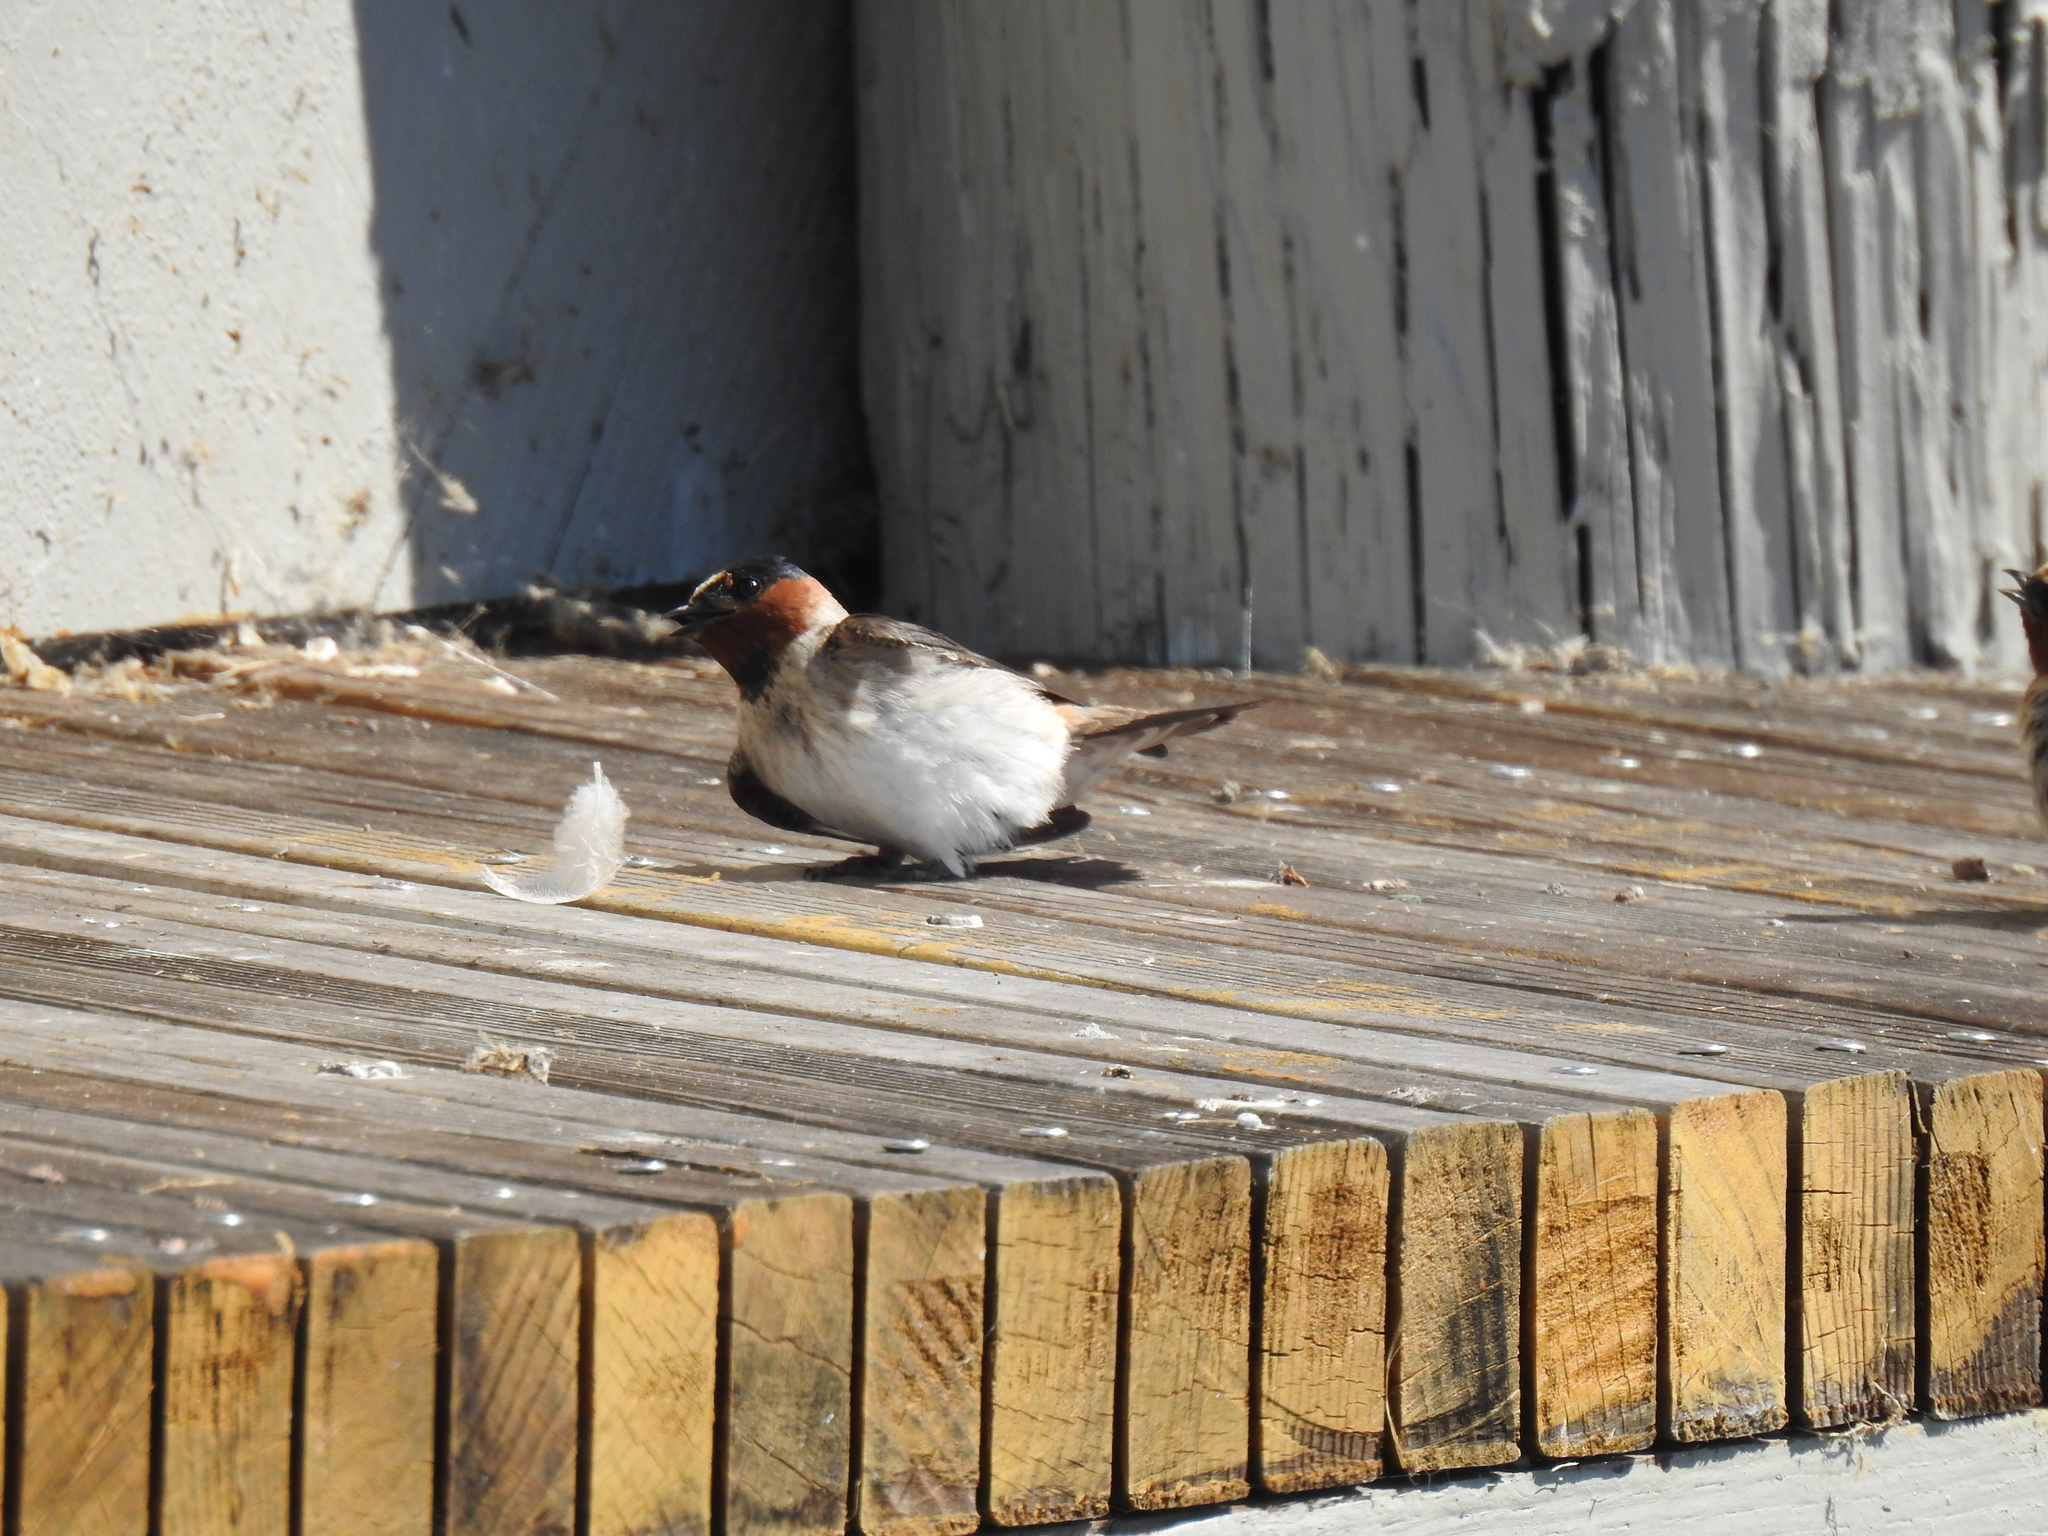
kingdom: Animalia
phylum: Chordata
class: Aves
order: Passeriformes
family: Hirundinidae
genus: Petrochelidon
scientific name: Petrochelidon pyrrhonota
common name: American cliff swallow
